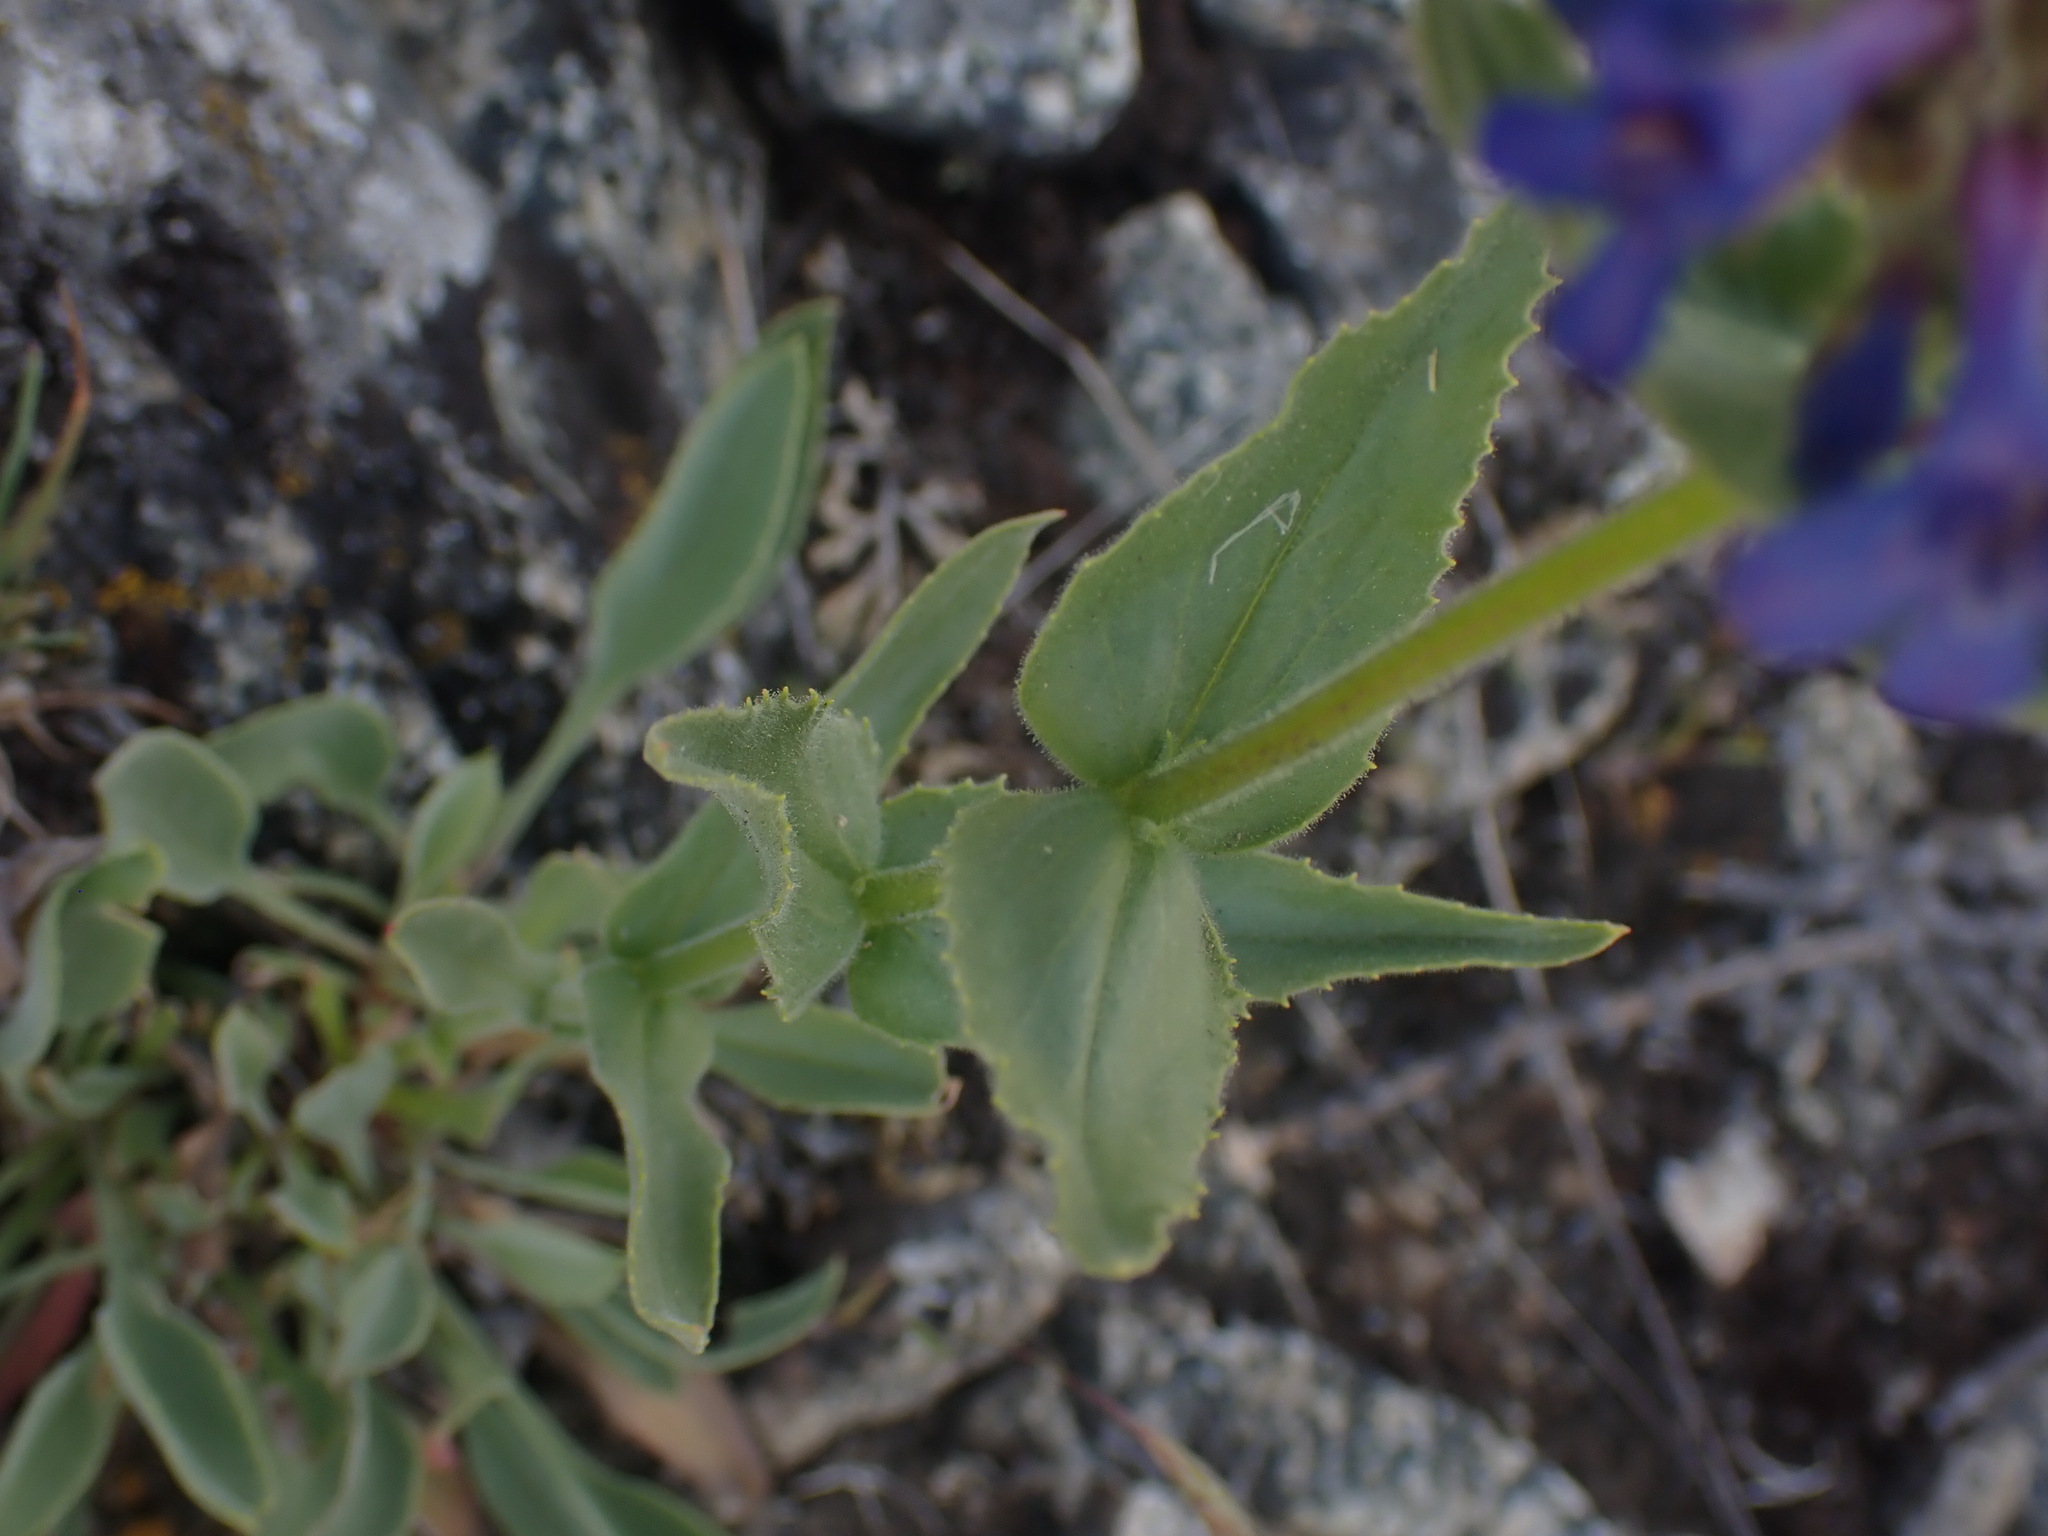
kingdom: Plantae
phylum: Tracheophyta
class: Magnoliopsida
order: Lamiales
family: Plantaginaceae
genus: Penstemon
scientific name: Penstemon pruinosus
